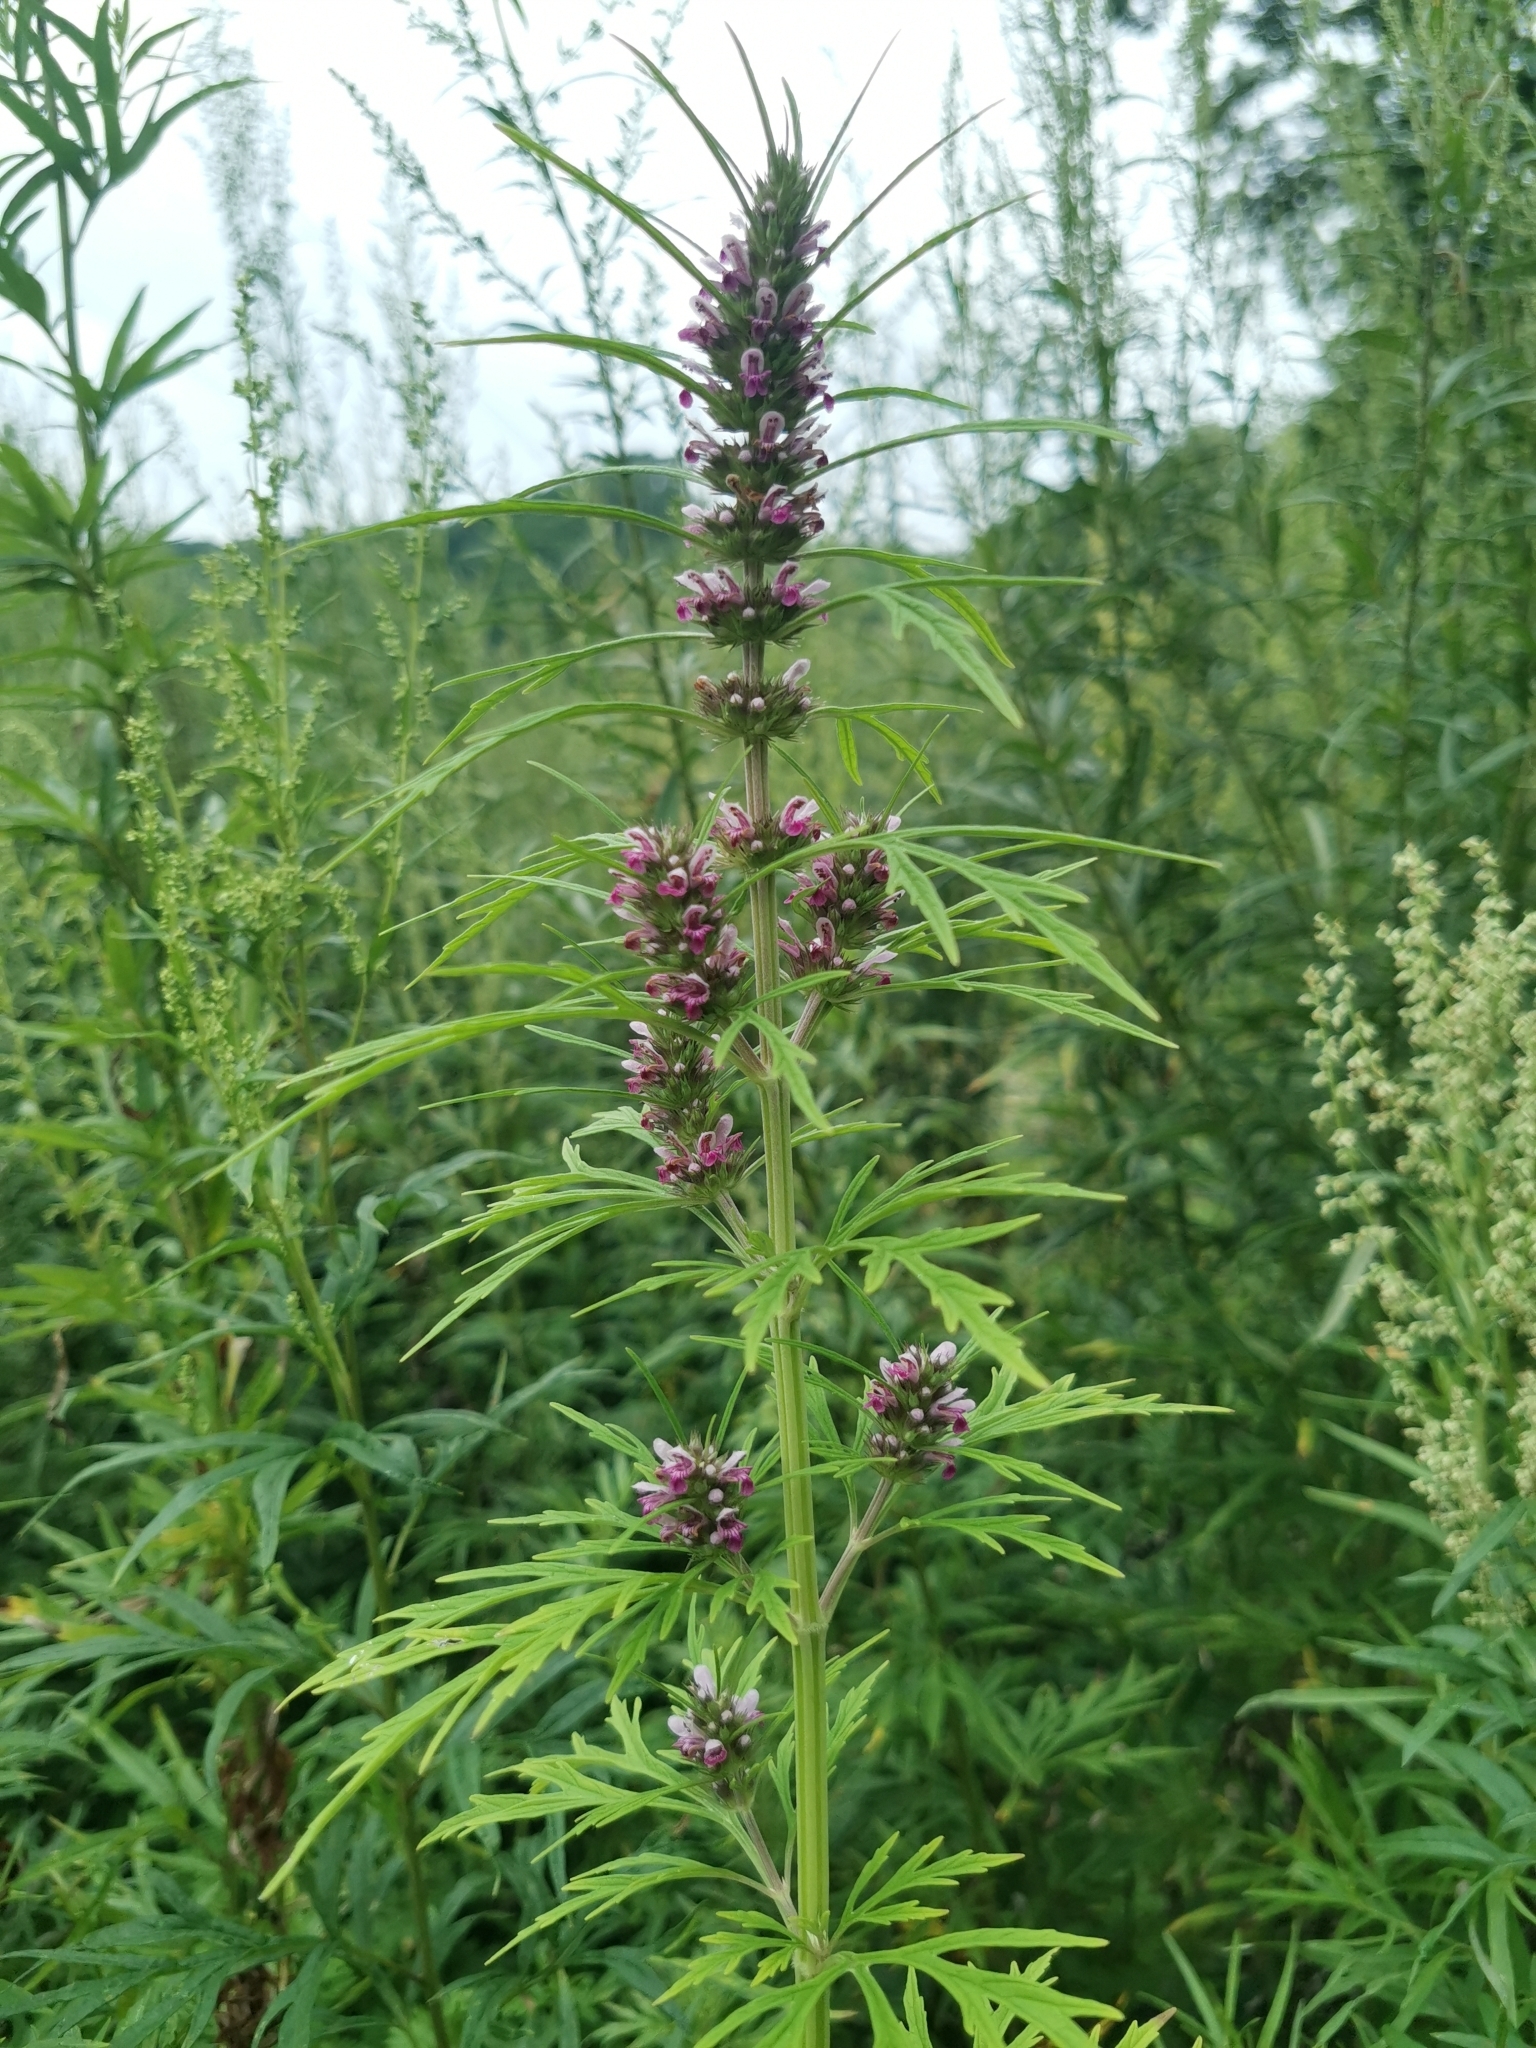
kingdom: Plantae
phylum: Tracheophyta
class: Magnoliopsida
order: Lamiales
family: Lamiaceae
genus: Leonurus
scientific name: Leonurus japonicus
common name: Honeyweed
